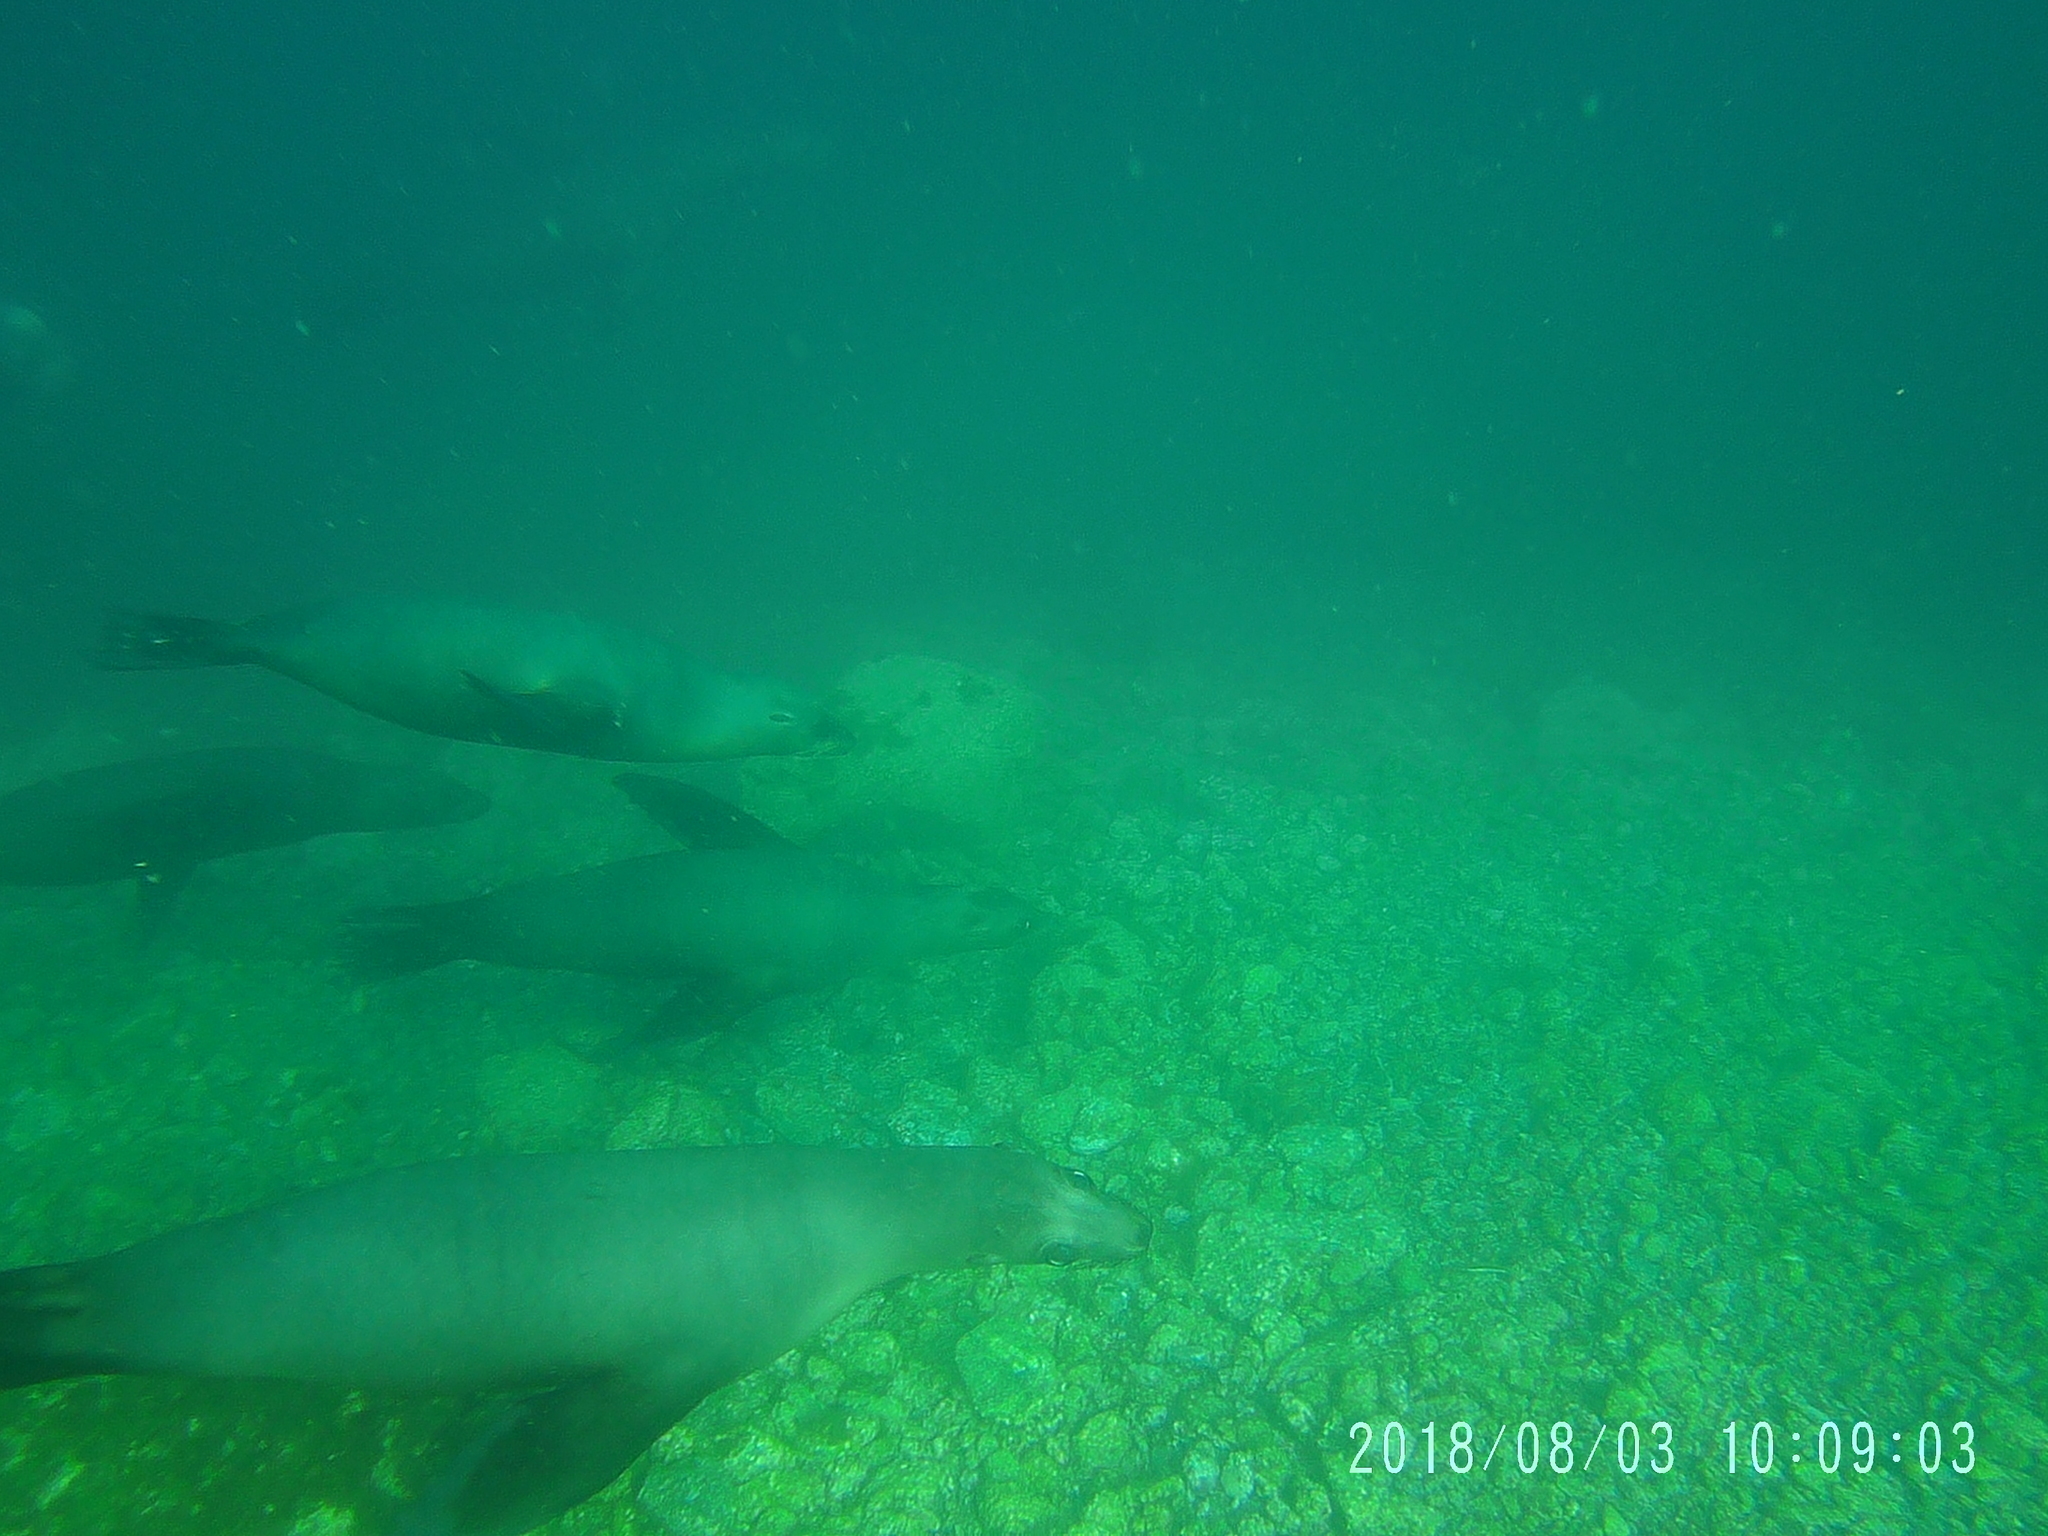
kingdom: Animalia
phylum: Chordata
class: Mammalia
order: Carnivora
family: Otariidae
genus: Zalophus
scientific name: Zalophus californianus
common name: California sea lion
